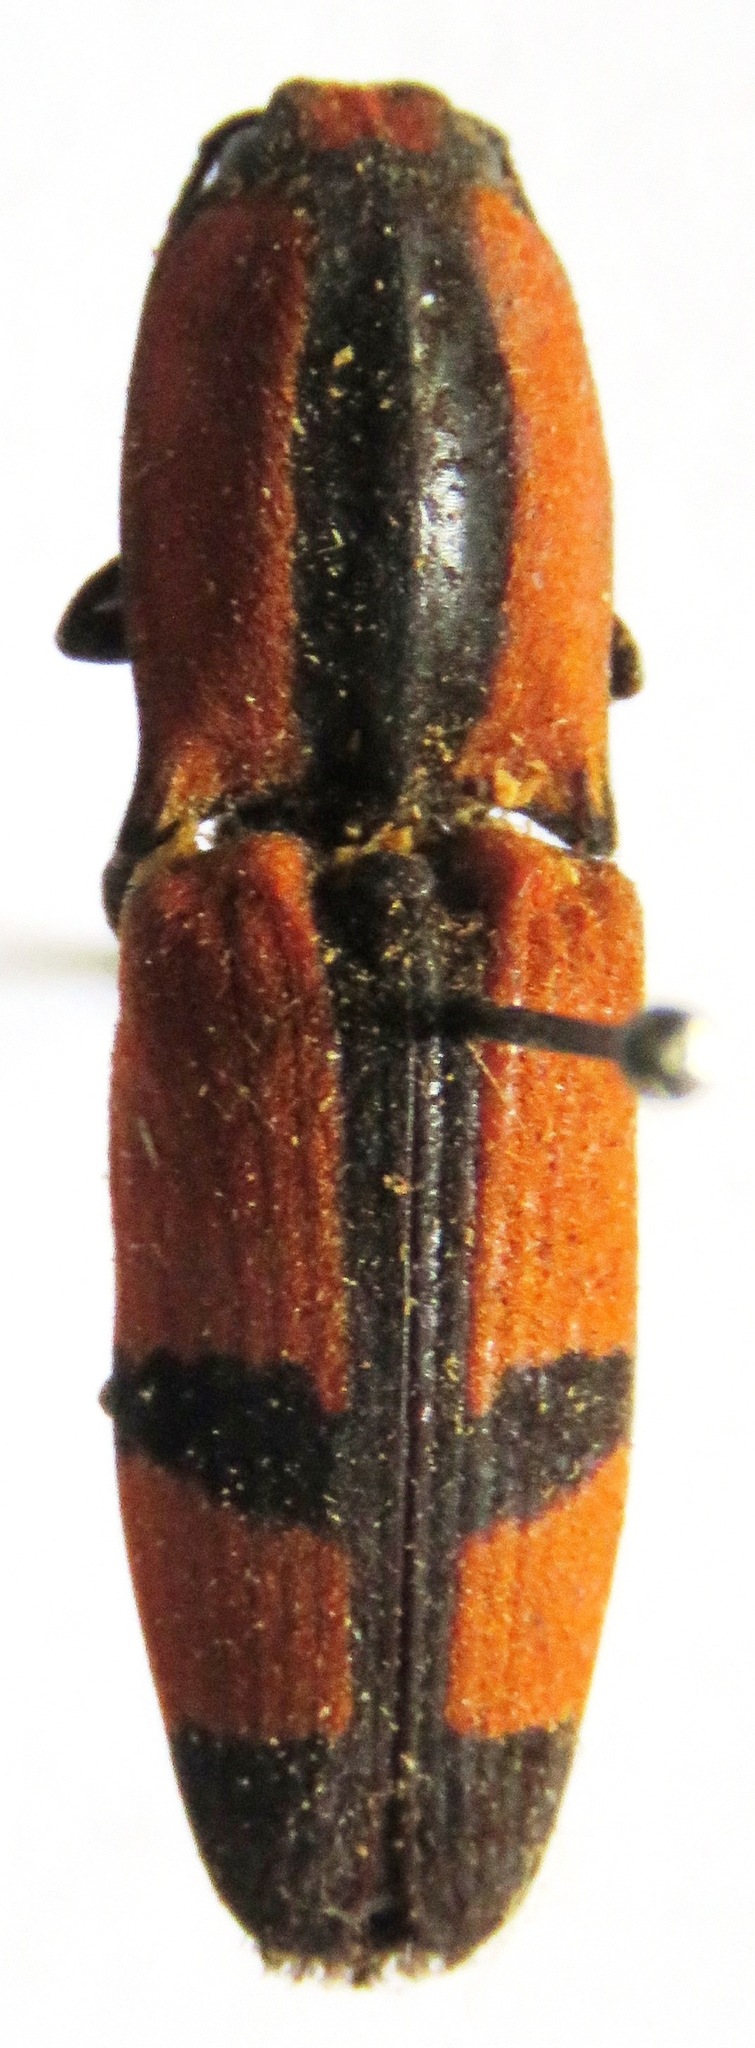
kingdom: Animalia
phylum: Arthropoda
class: Insecta
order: Coleoptera
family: Elateridae
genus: Neoabiphis
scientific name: Neoabiphis
